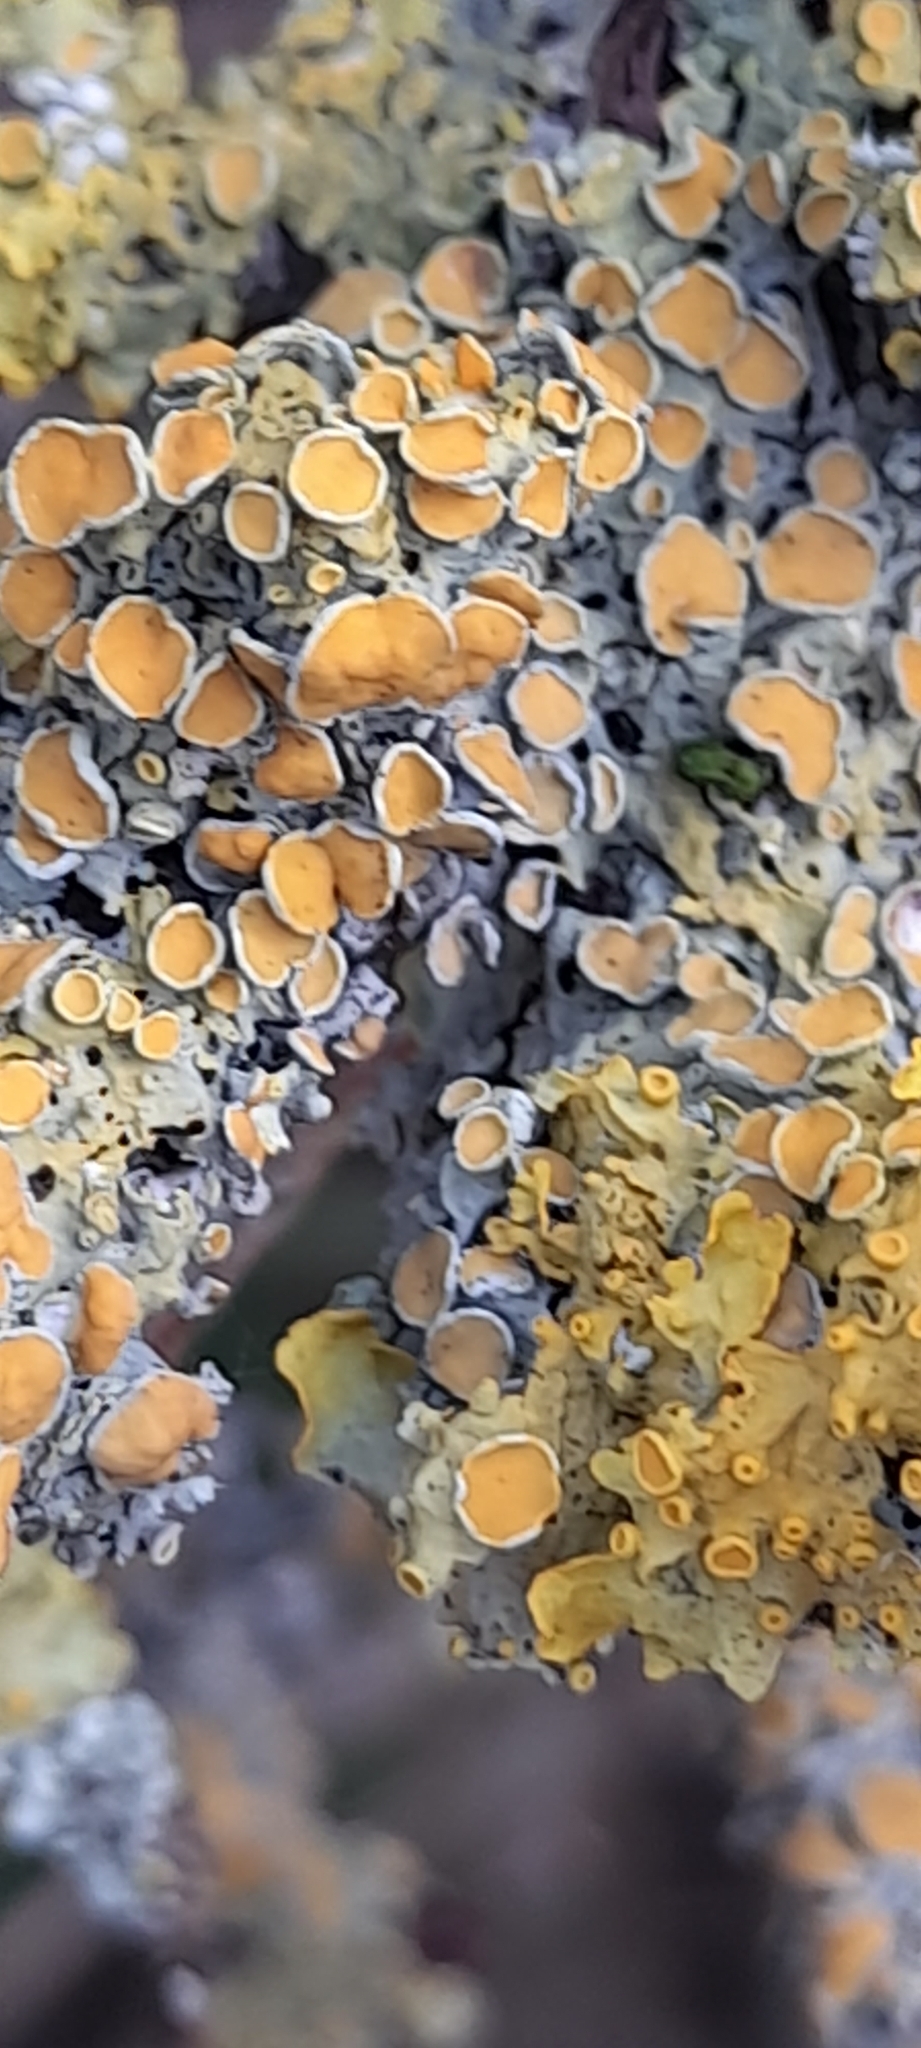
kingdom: Fungi
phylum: Ascomycota
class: Lecanoromycetes
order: Teloschistales
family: Teloschistaceae
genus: Xanthoria
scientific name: Xanthoria parietina
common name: Common orange lichen
